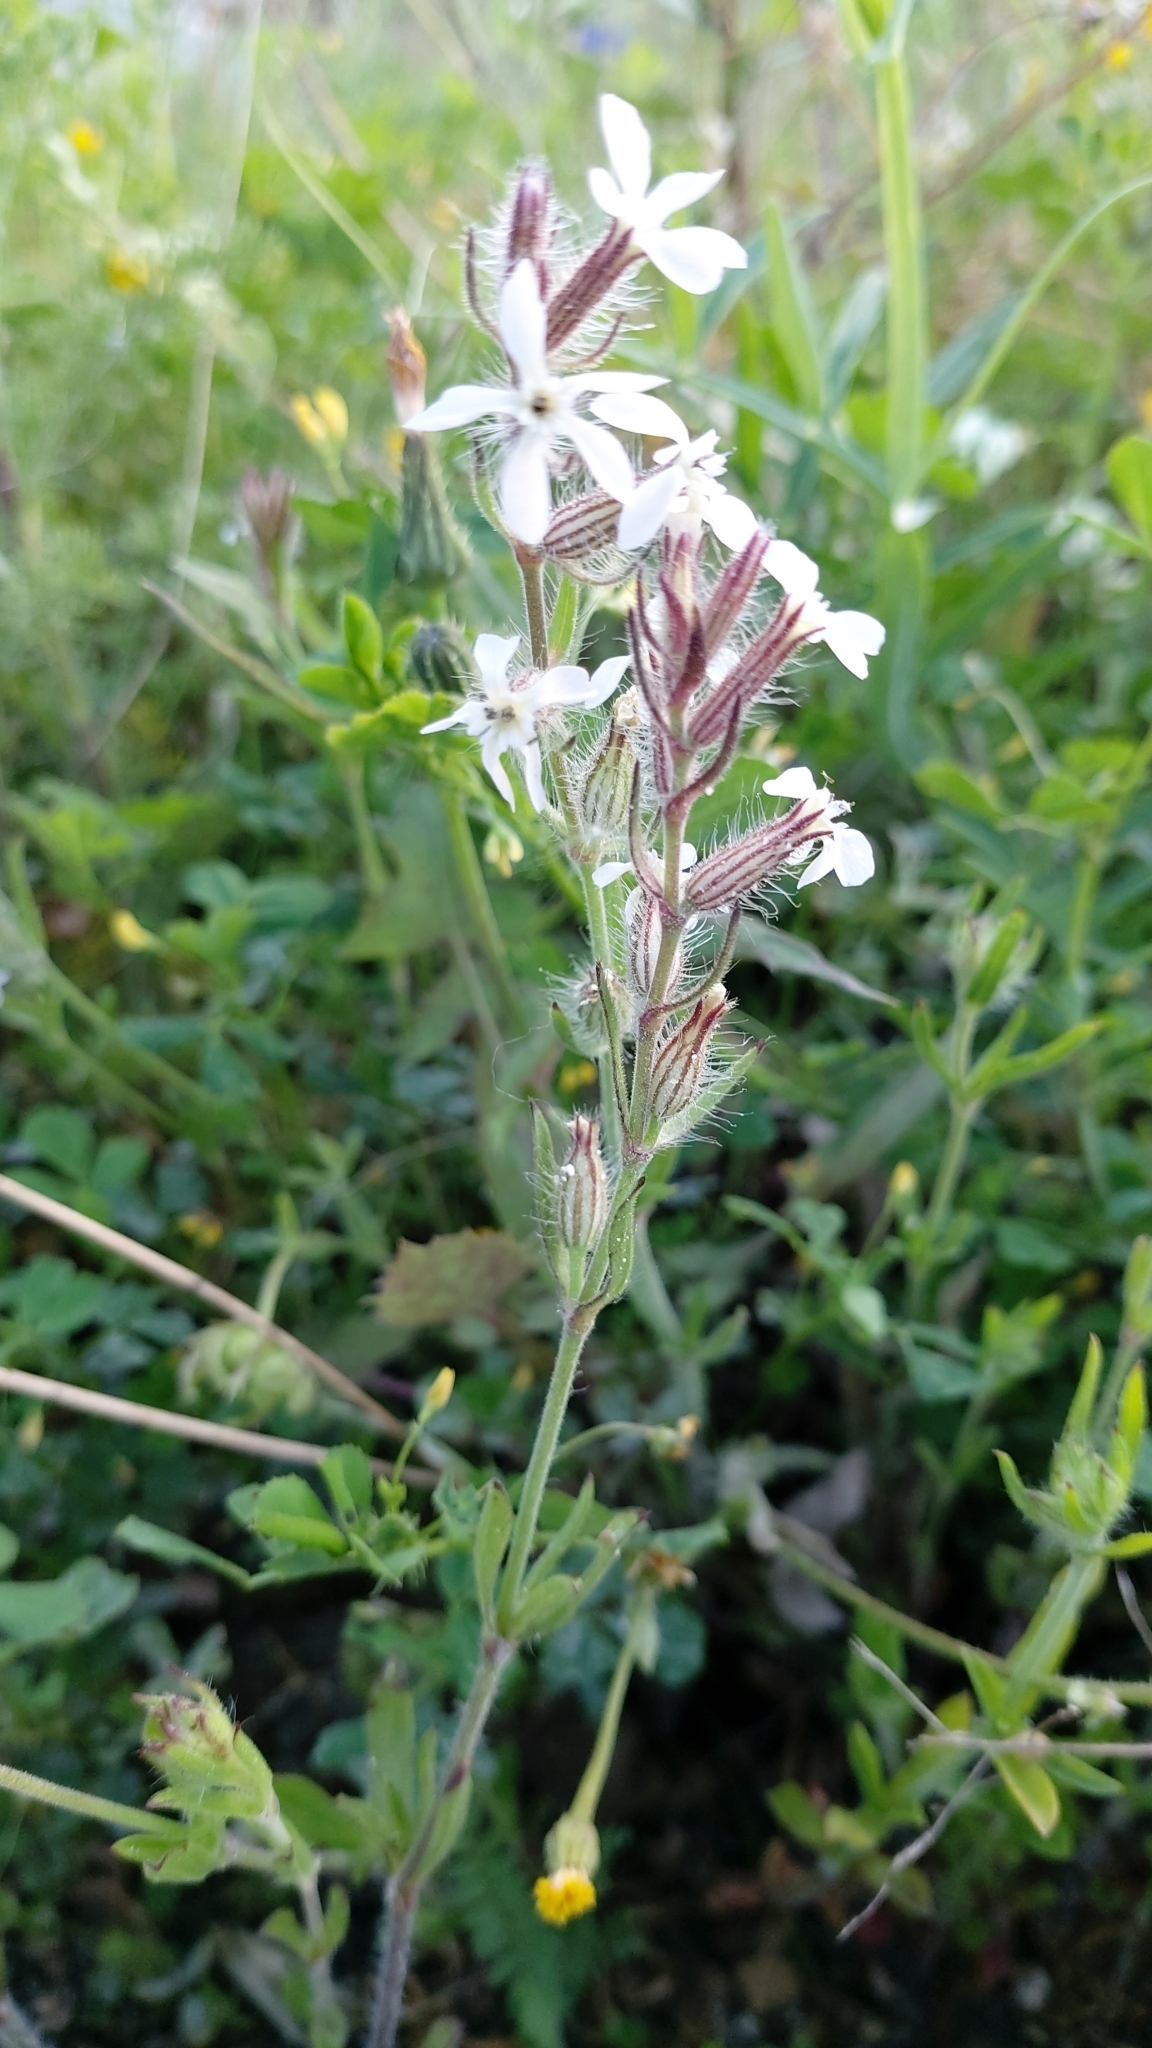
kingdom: Plantae
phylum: Tracheophyta
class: Magnoliopsida
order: Caryophyllales
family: Caryophyllaceae
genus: Silene
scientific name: Silene gallica
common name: Small-flowered catchfly
